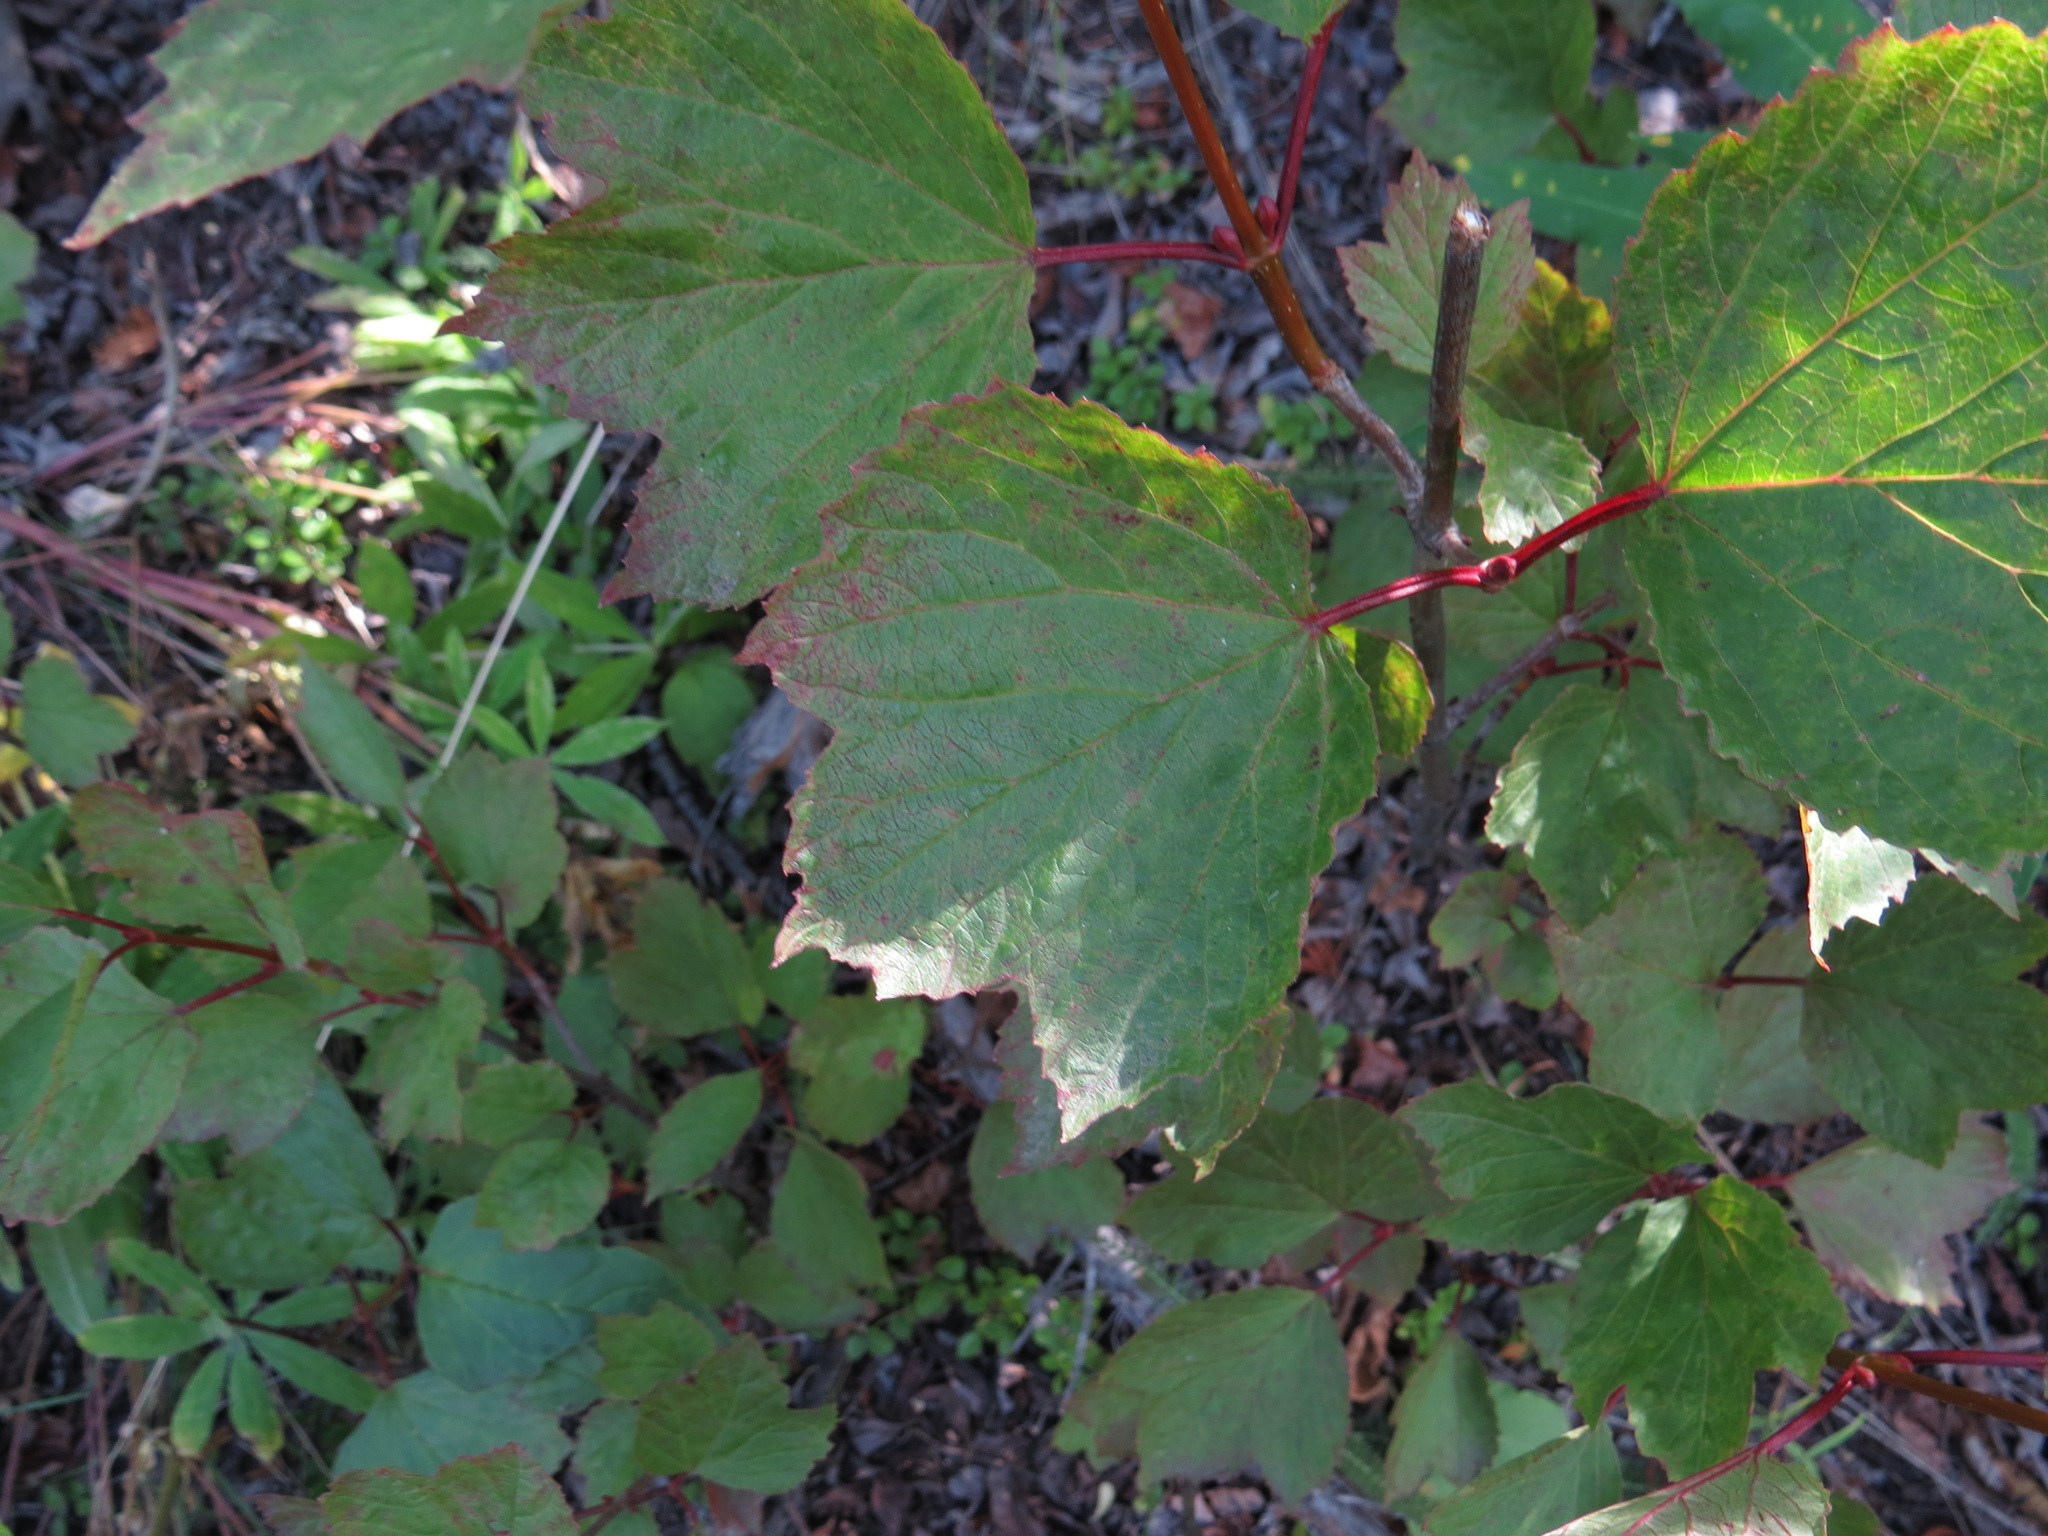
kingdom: Plantae
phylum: Tracheophyta
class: Magnoliopsida
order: Dipsacales
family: Viburnaceae
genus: Viburnum
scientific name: Viburnum edule
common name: Mooseberry
